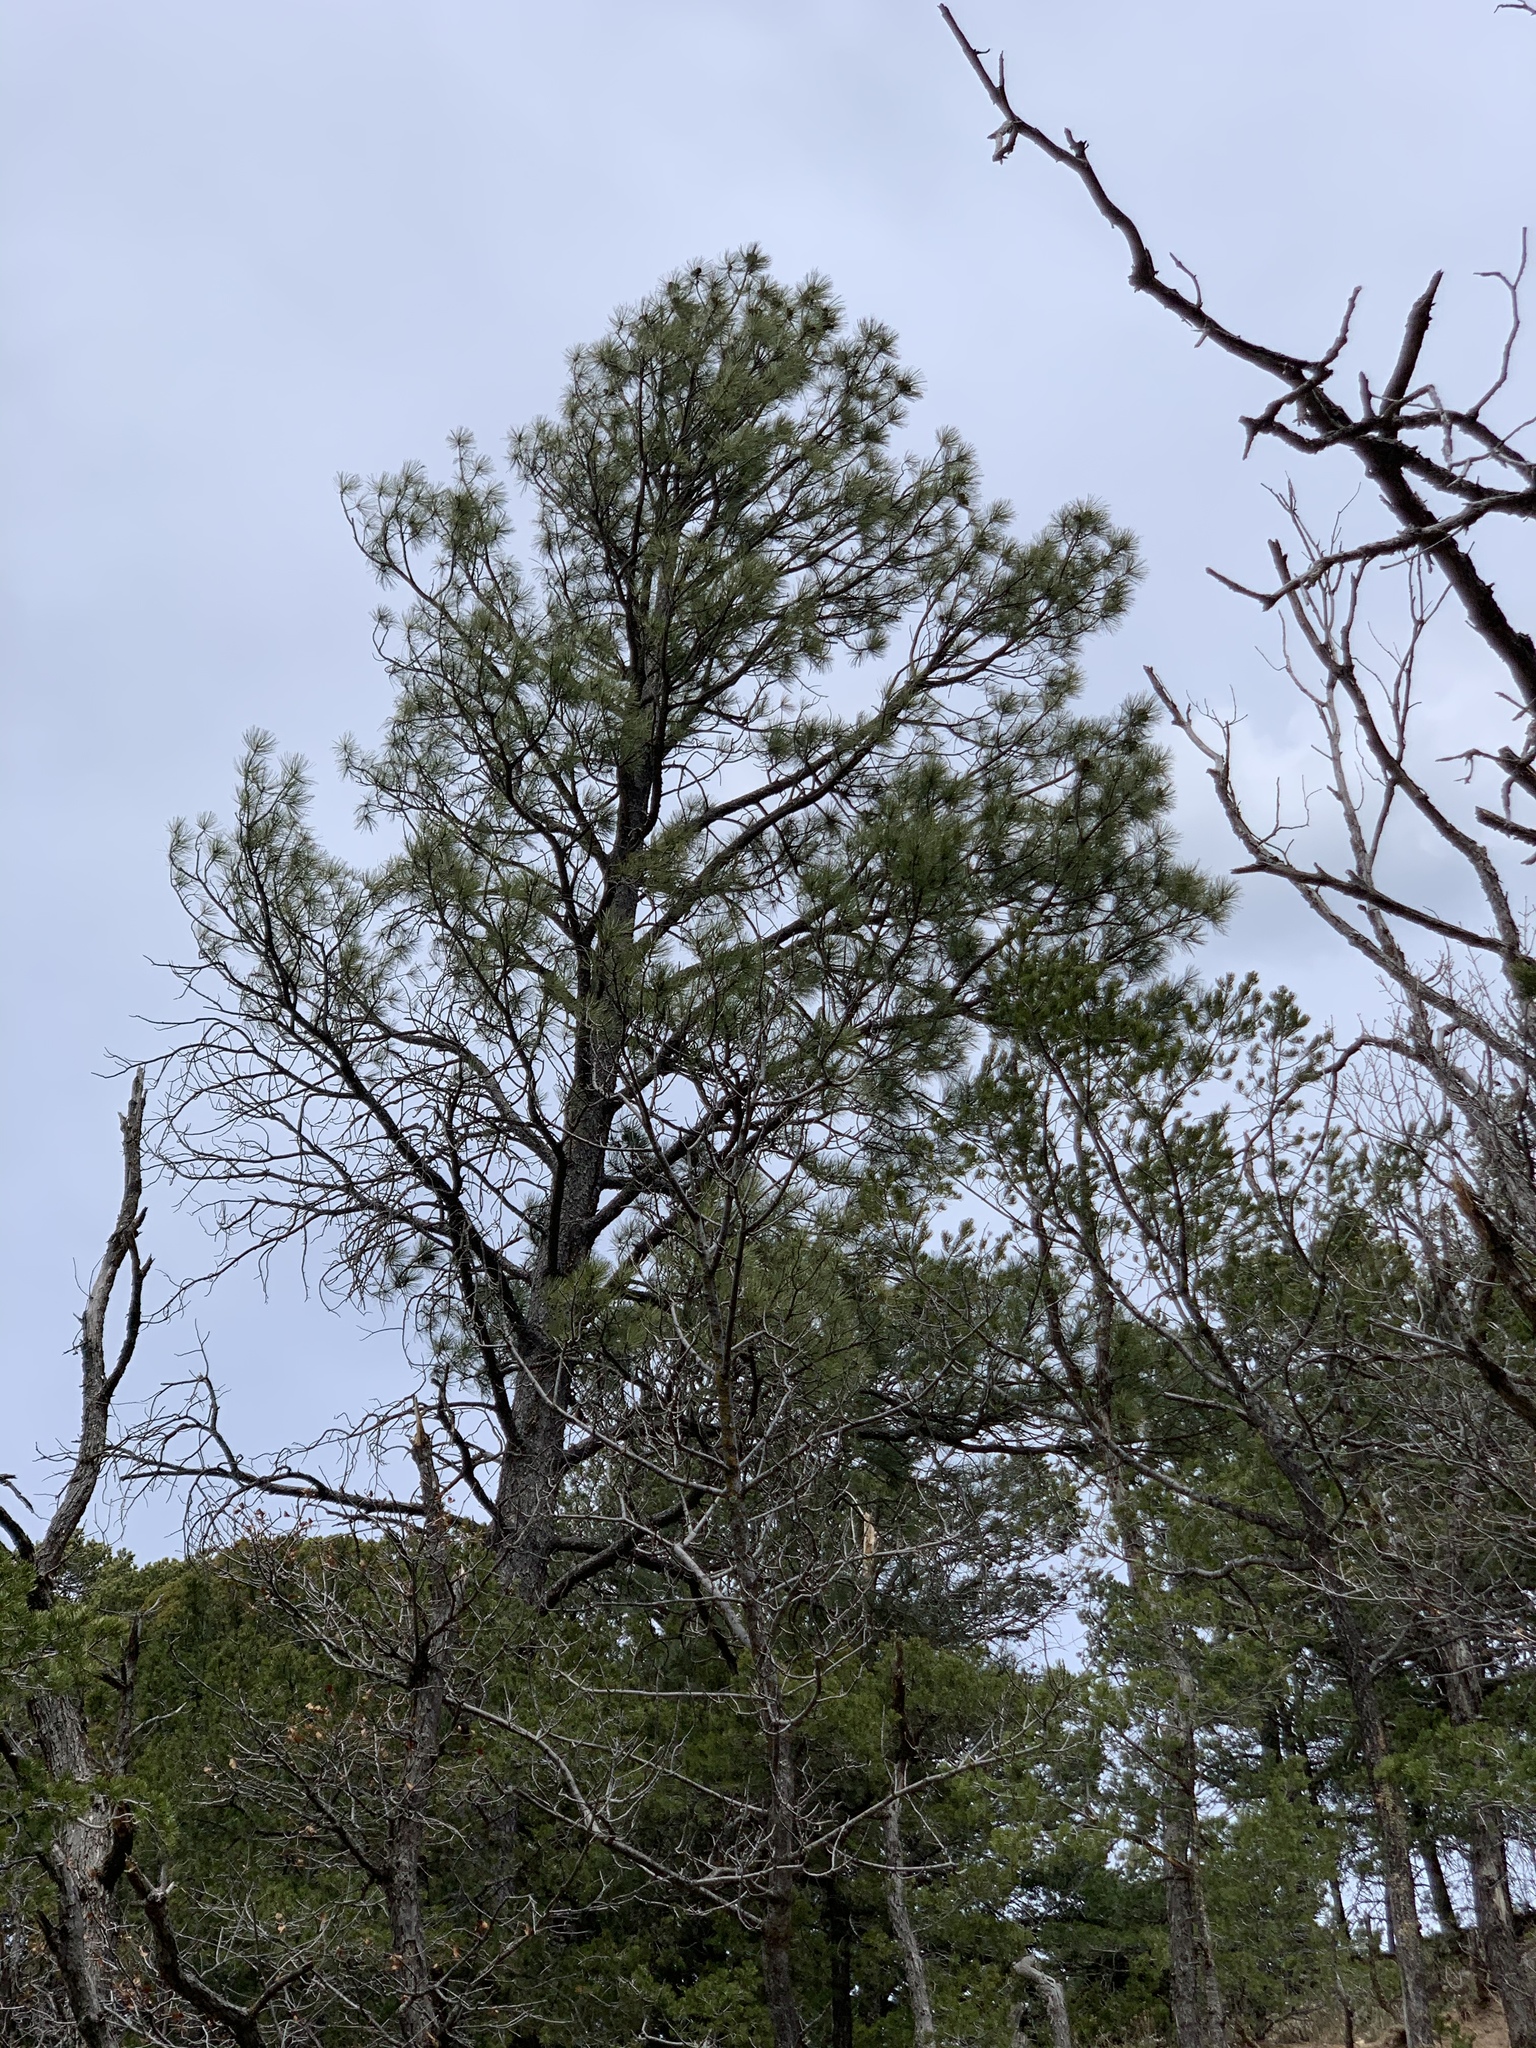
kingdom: Plantae
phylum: Tracheophyta
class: Pinopsida
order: Pinales
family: Pinaceae
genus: Pinus
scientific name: Pinus ponderosa
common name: Western yellow-pine
